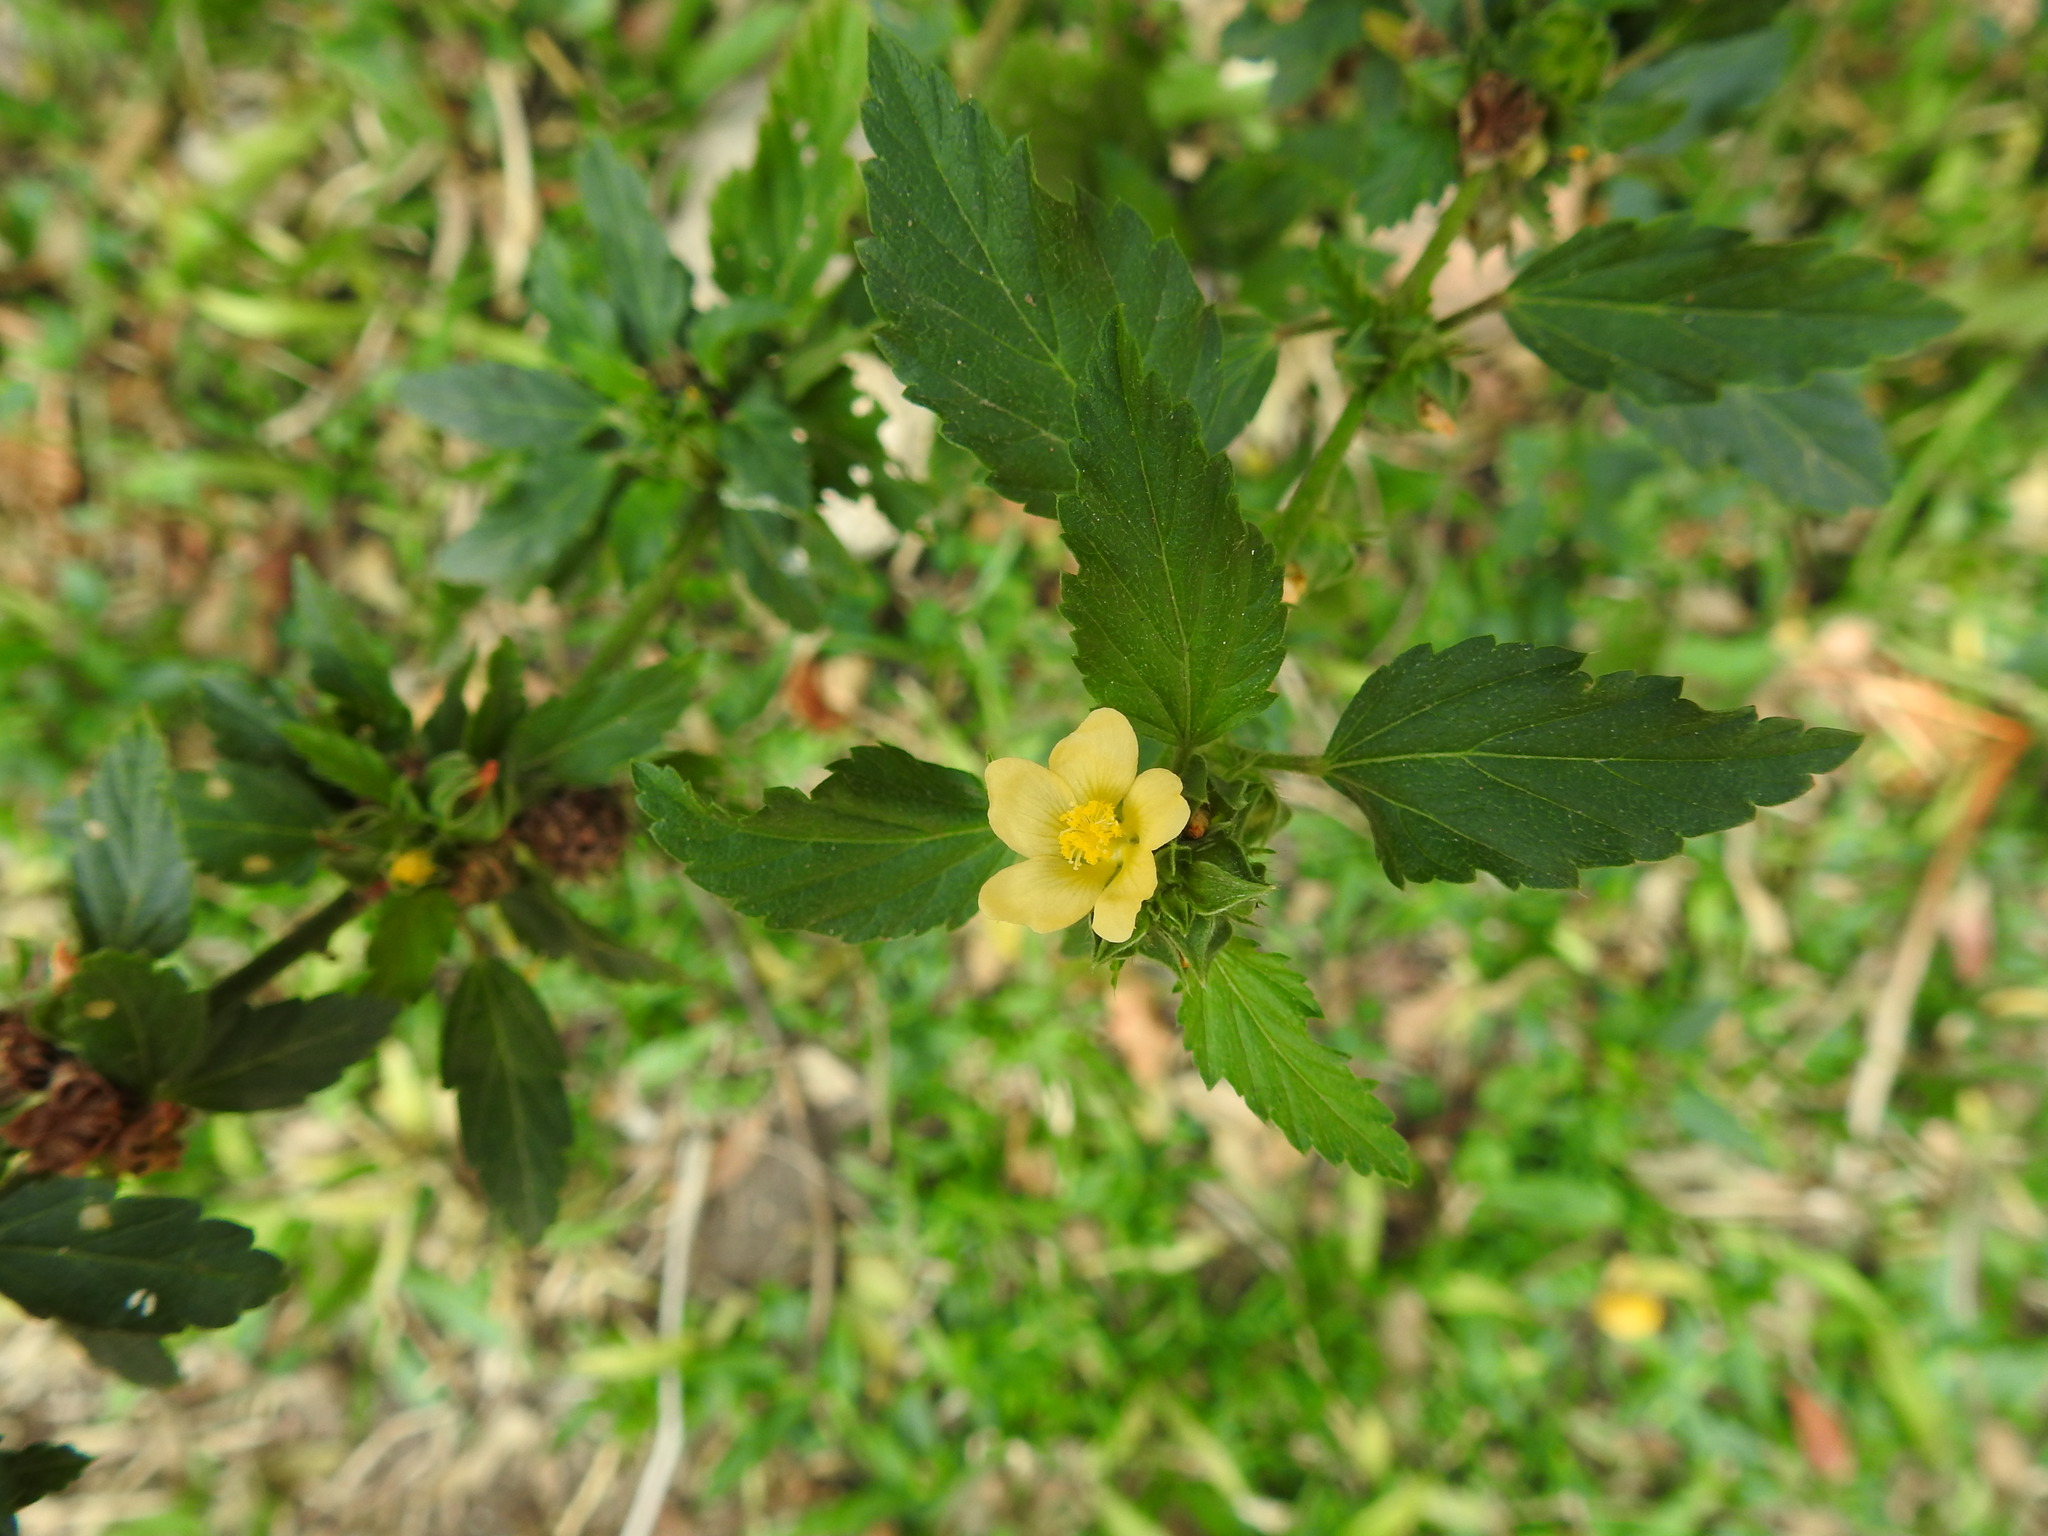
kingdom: Plantae
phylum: Tracheophyta
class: Magnoliopsida
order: Malvales
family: Malvaceae
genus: Malvastrum
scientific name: Malvastrum coromandelianum
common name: Threelobe false mallow
